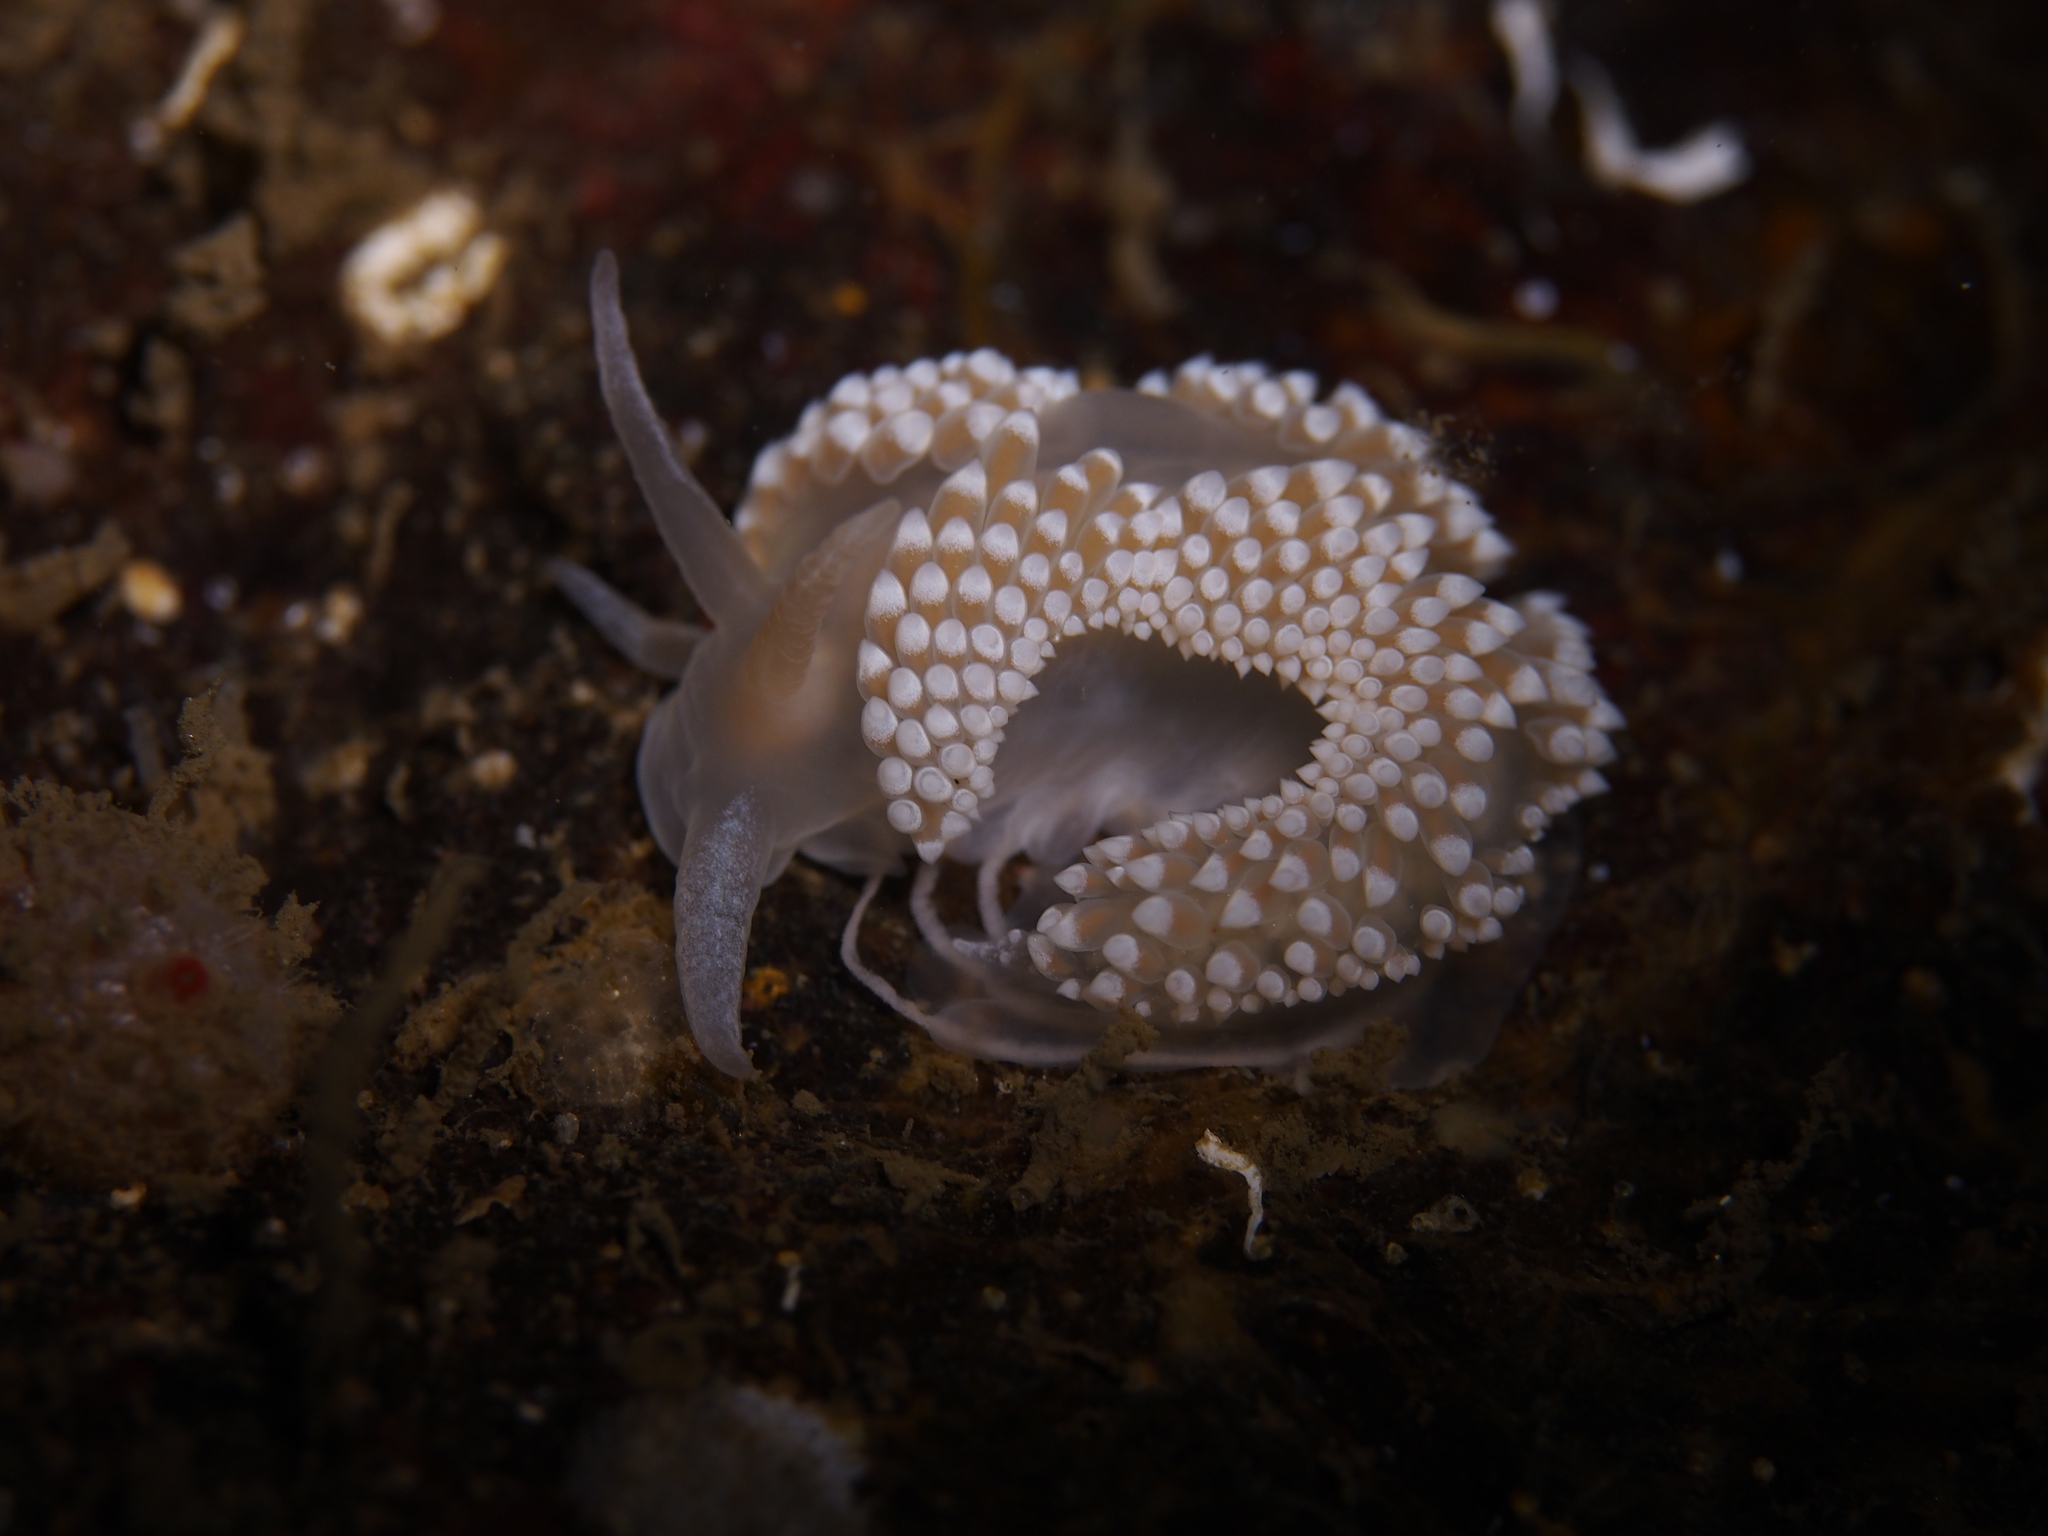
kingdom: Animalia
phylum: Mollusca
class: Gastropoda
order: Nudibranchia
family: Coryphellidae
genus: Coryphella
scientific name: Coryphella verrucosa
